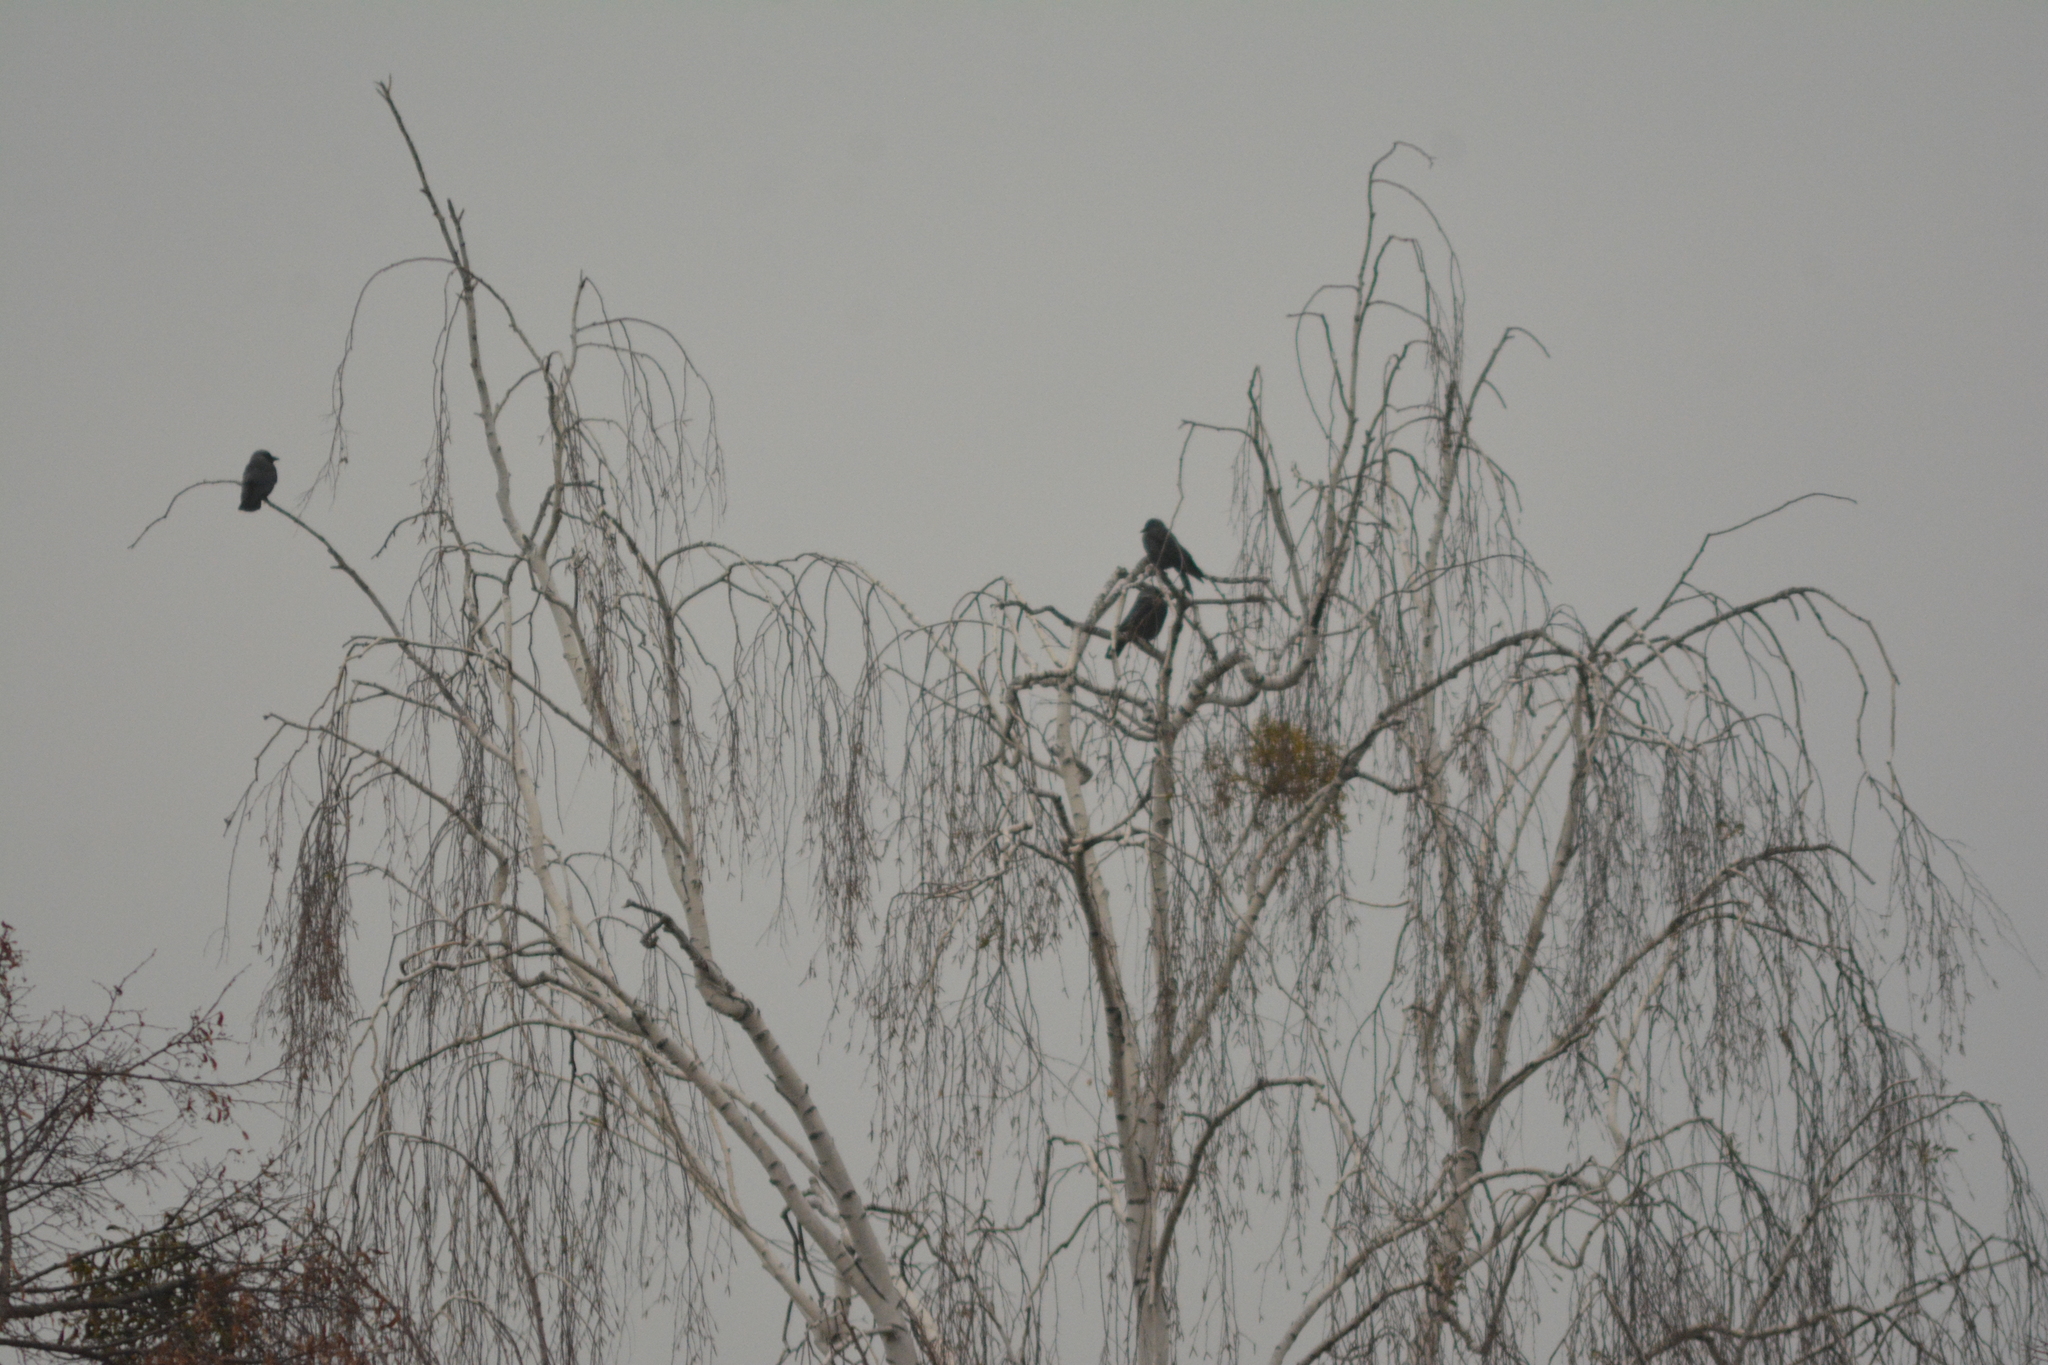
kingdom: Animalia
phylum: Chordata
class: Aves
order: Passeriformes
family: Corvidae
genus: Coloeus
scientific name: Coloeus monedula
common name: Western jackdaw
